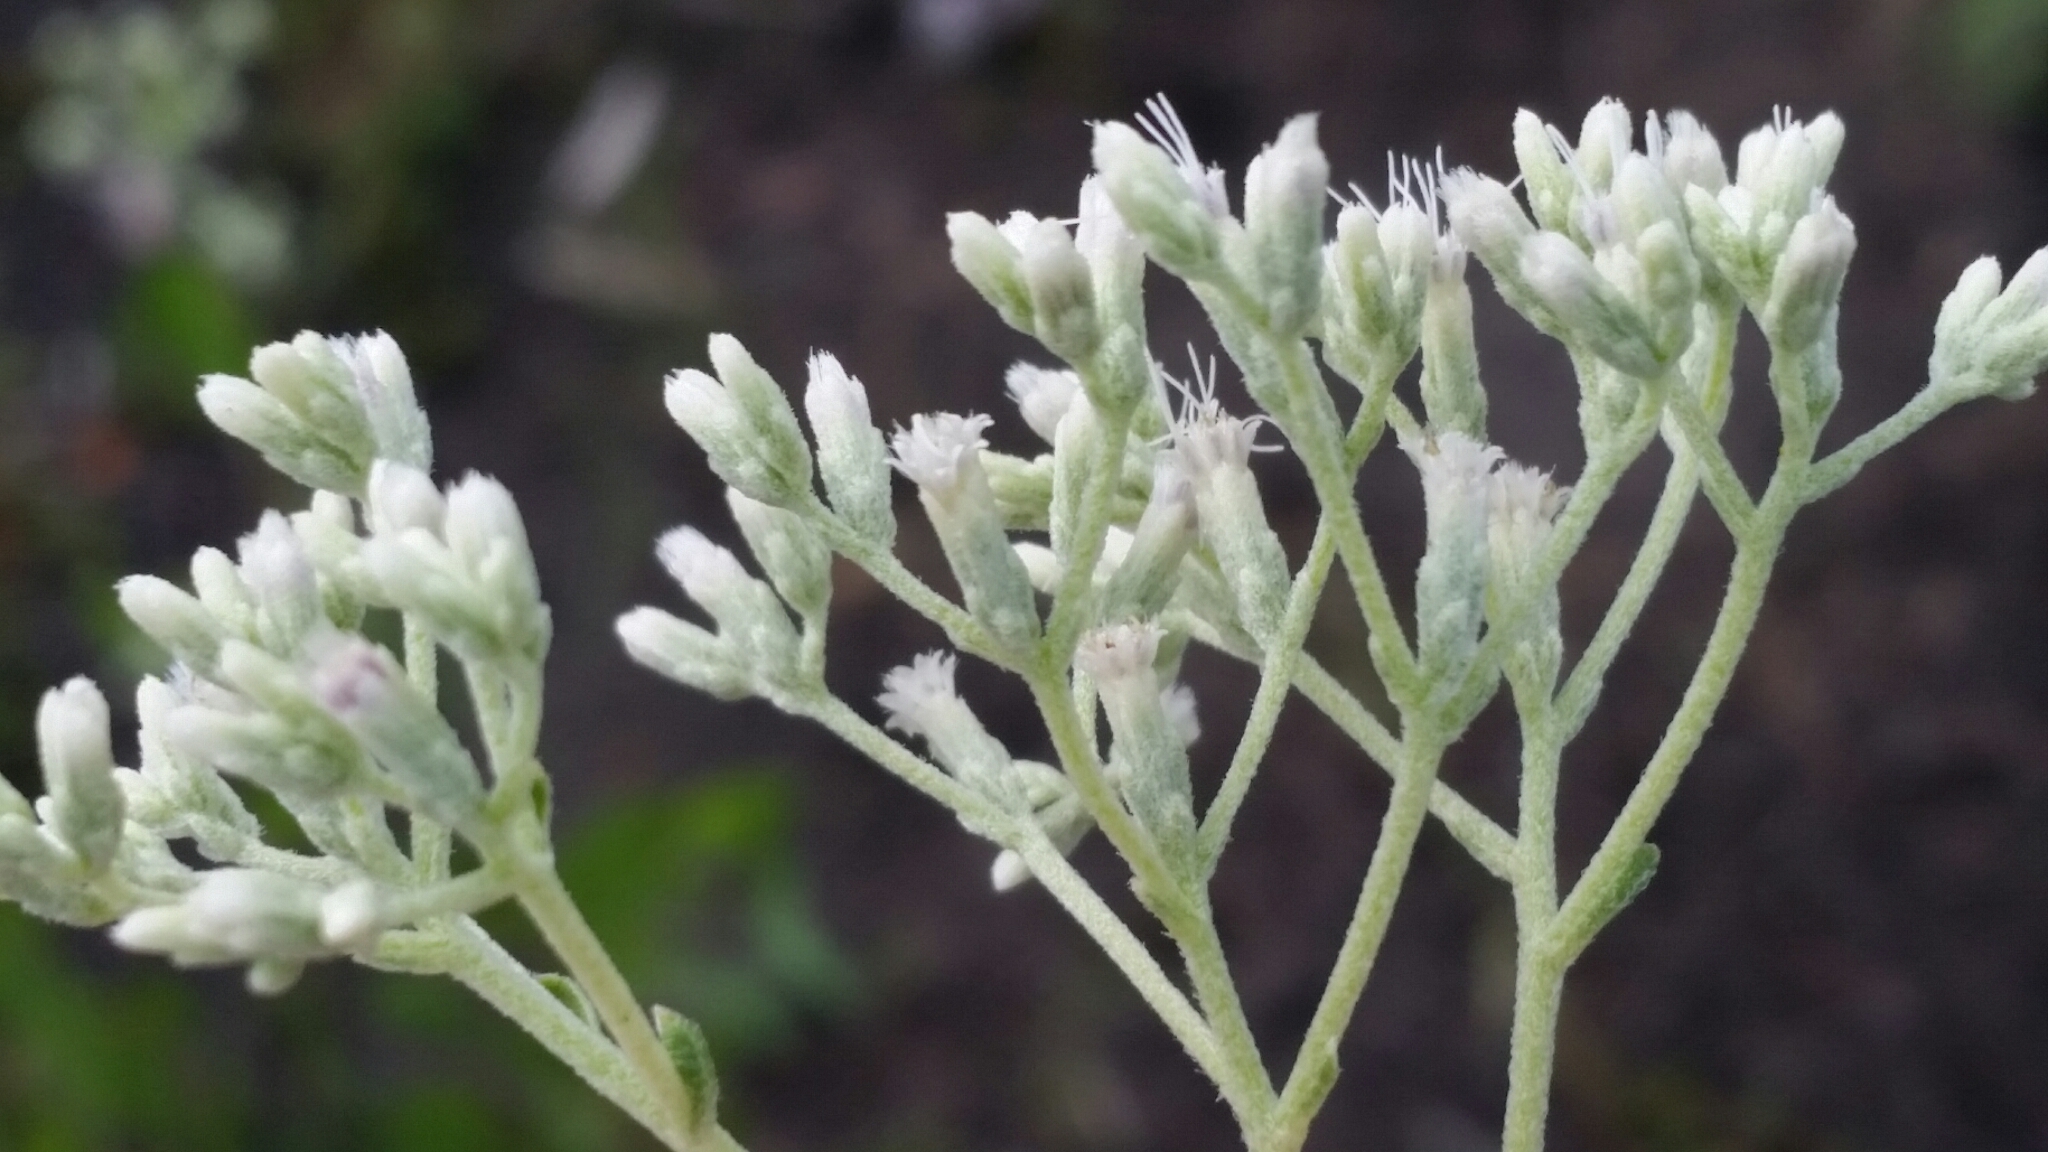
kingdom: Plantae
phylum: Tracheophyta
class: Magnoliopsida
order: Asterales
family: Asteraceae
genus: Eupatorium
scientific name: Eupatorium mikanioides
